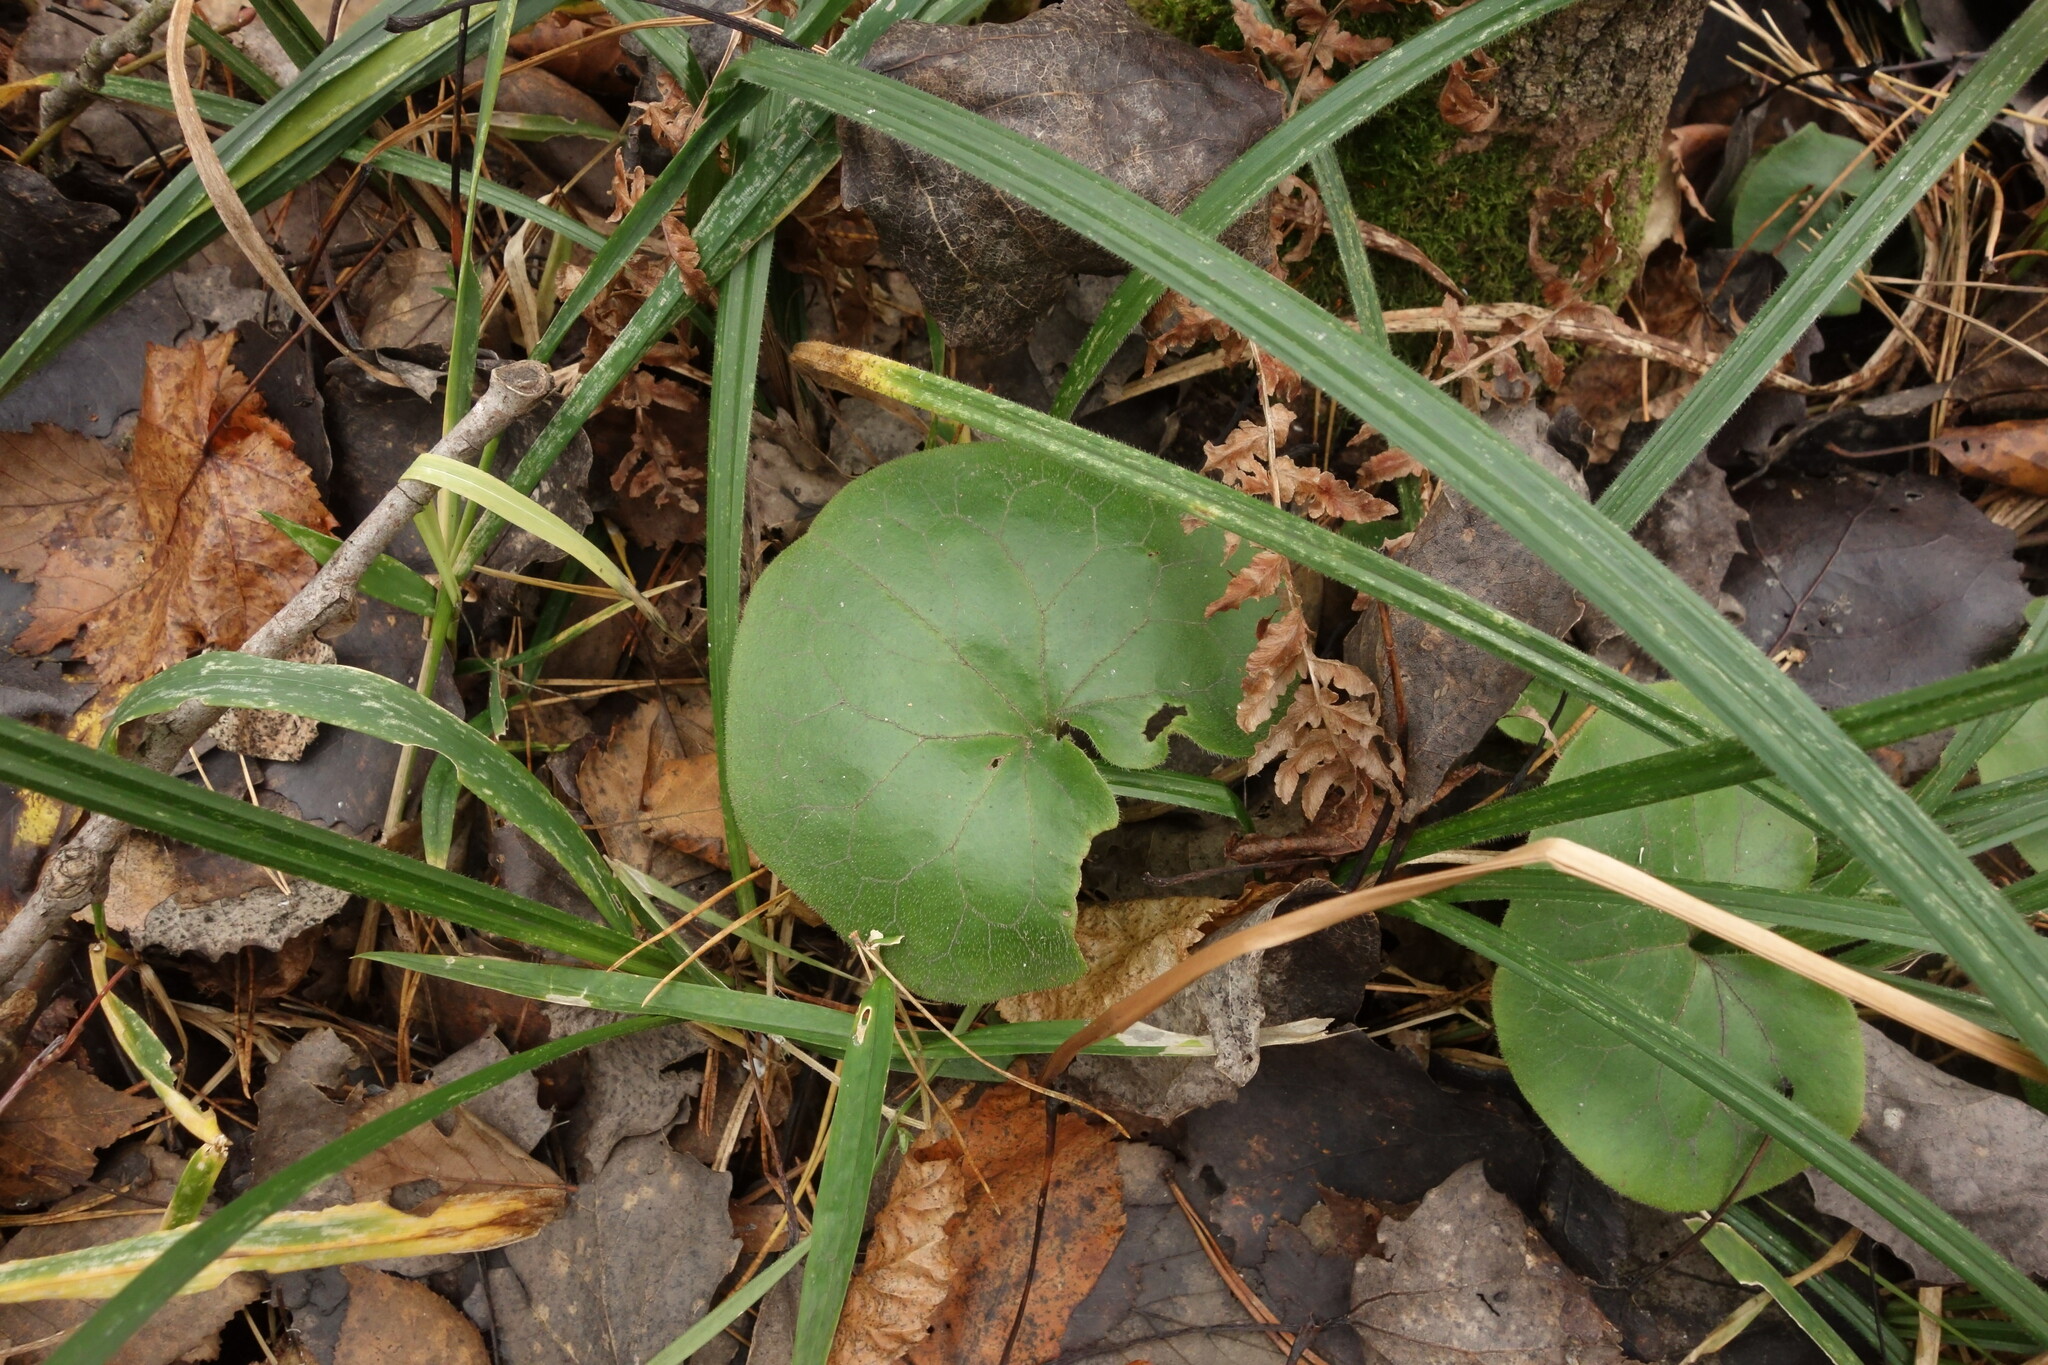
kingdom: Plantae
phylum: Tracheophyta
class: Magnoliopsida
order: Piperales
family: Aristolochiaceae
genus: Asarum
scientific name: Asarum europaeum
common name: Asarabacca
